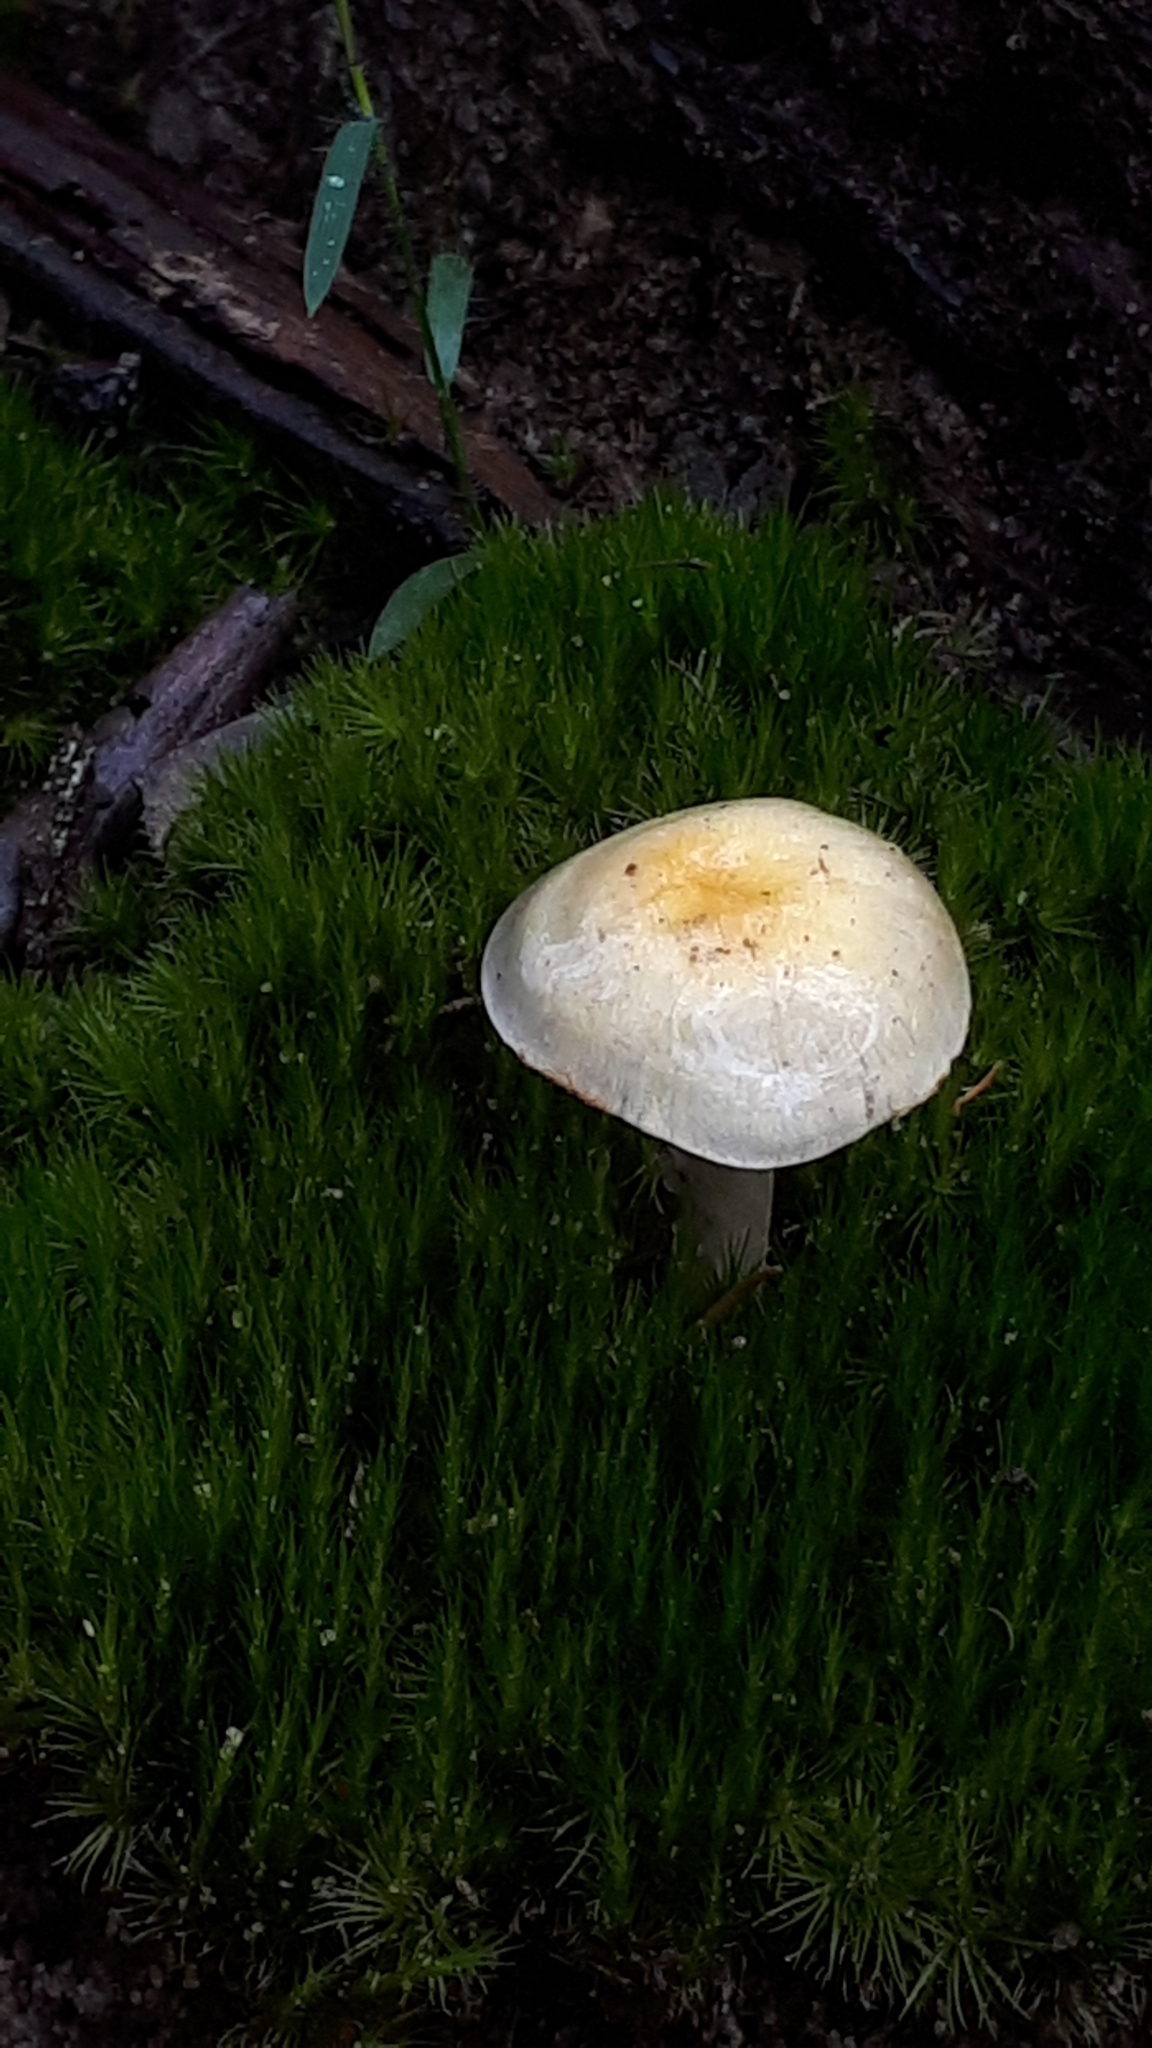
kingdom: Fungi
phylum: Basidiomycota
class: Agaricomycetes
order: Agaricales
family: Cortinariaceae
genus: Cortinarius
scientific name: Cortinarius rotundisporus
